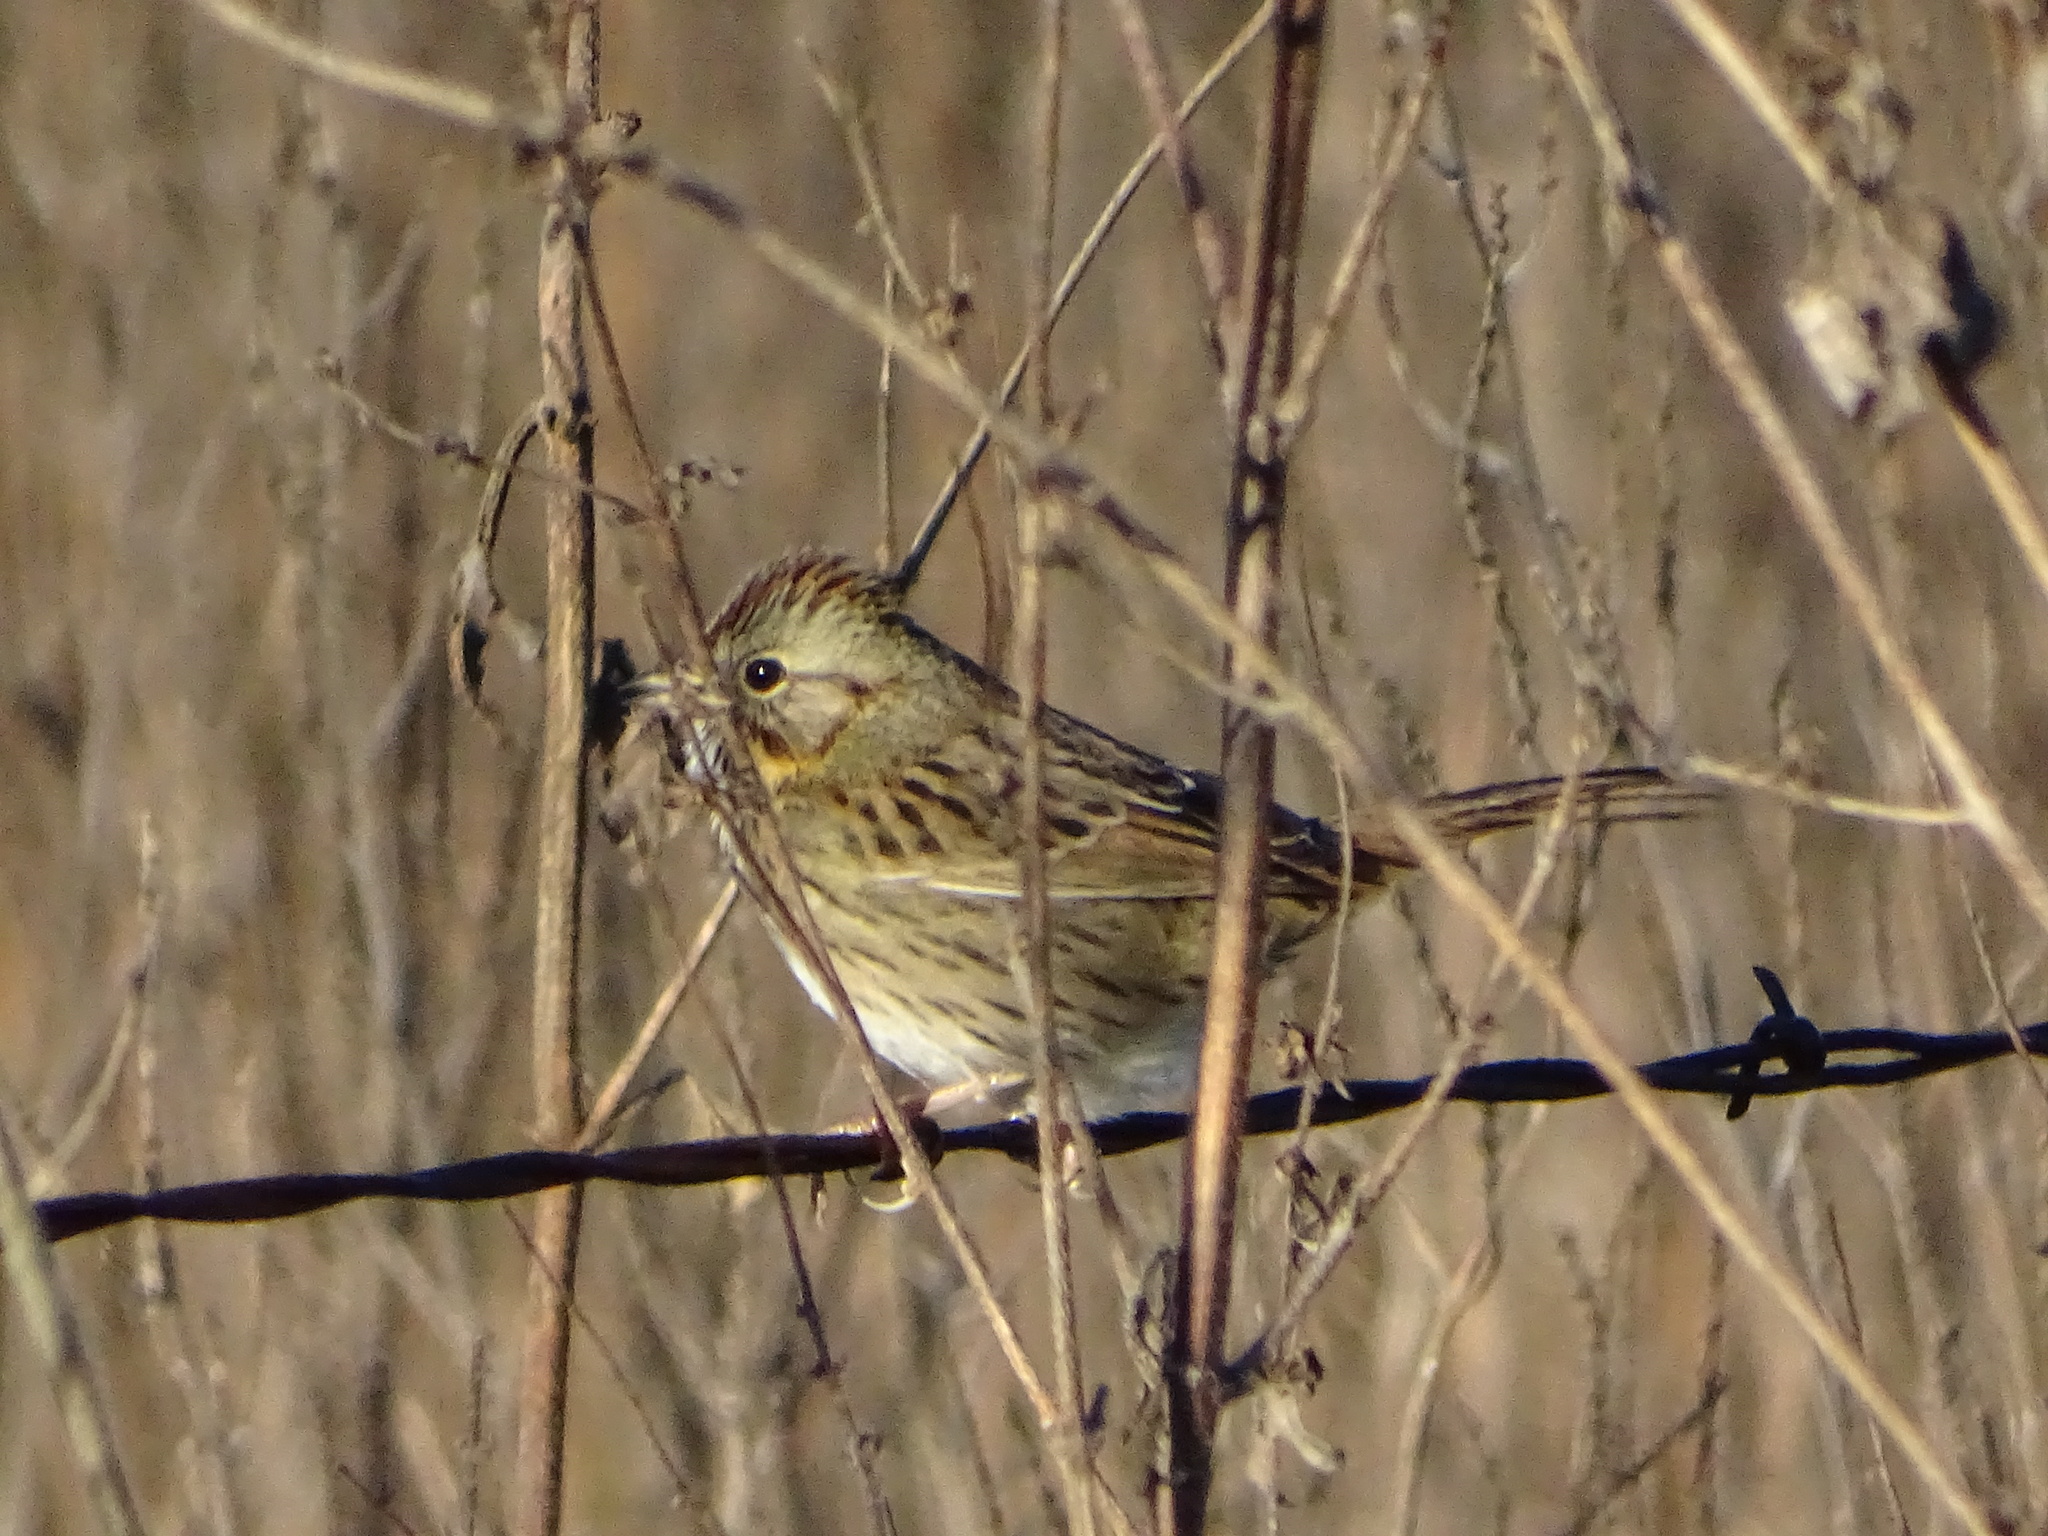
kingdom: Animalia
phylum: Chordata
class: Aves
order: Passeriformes
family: Passerellidae
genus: Melospiza
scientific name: Melospiza lincolnii
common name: Lincoln's sparrow
